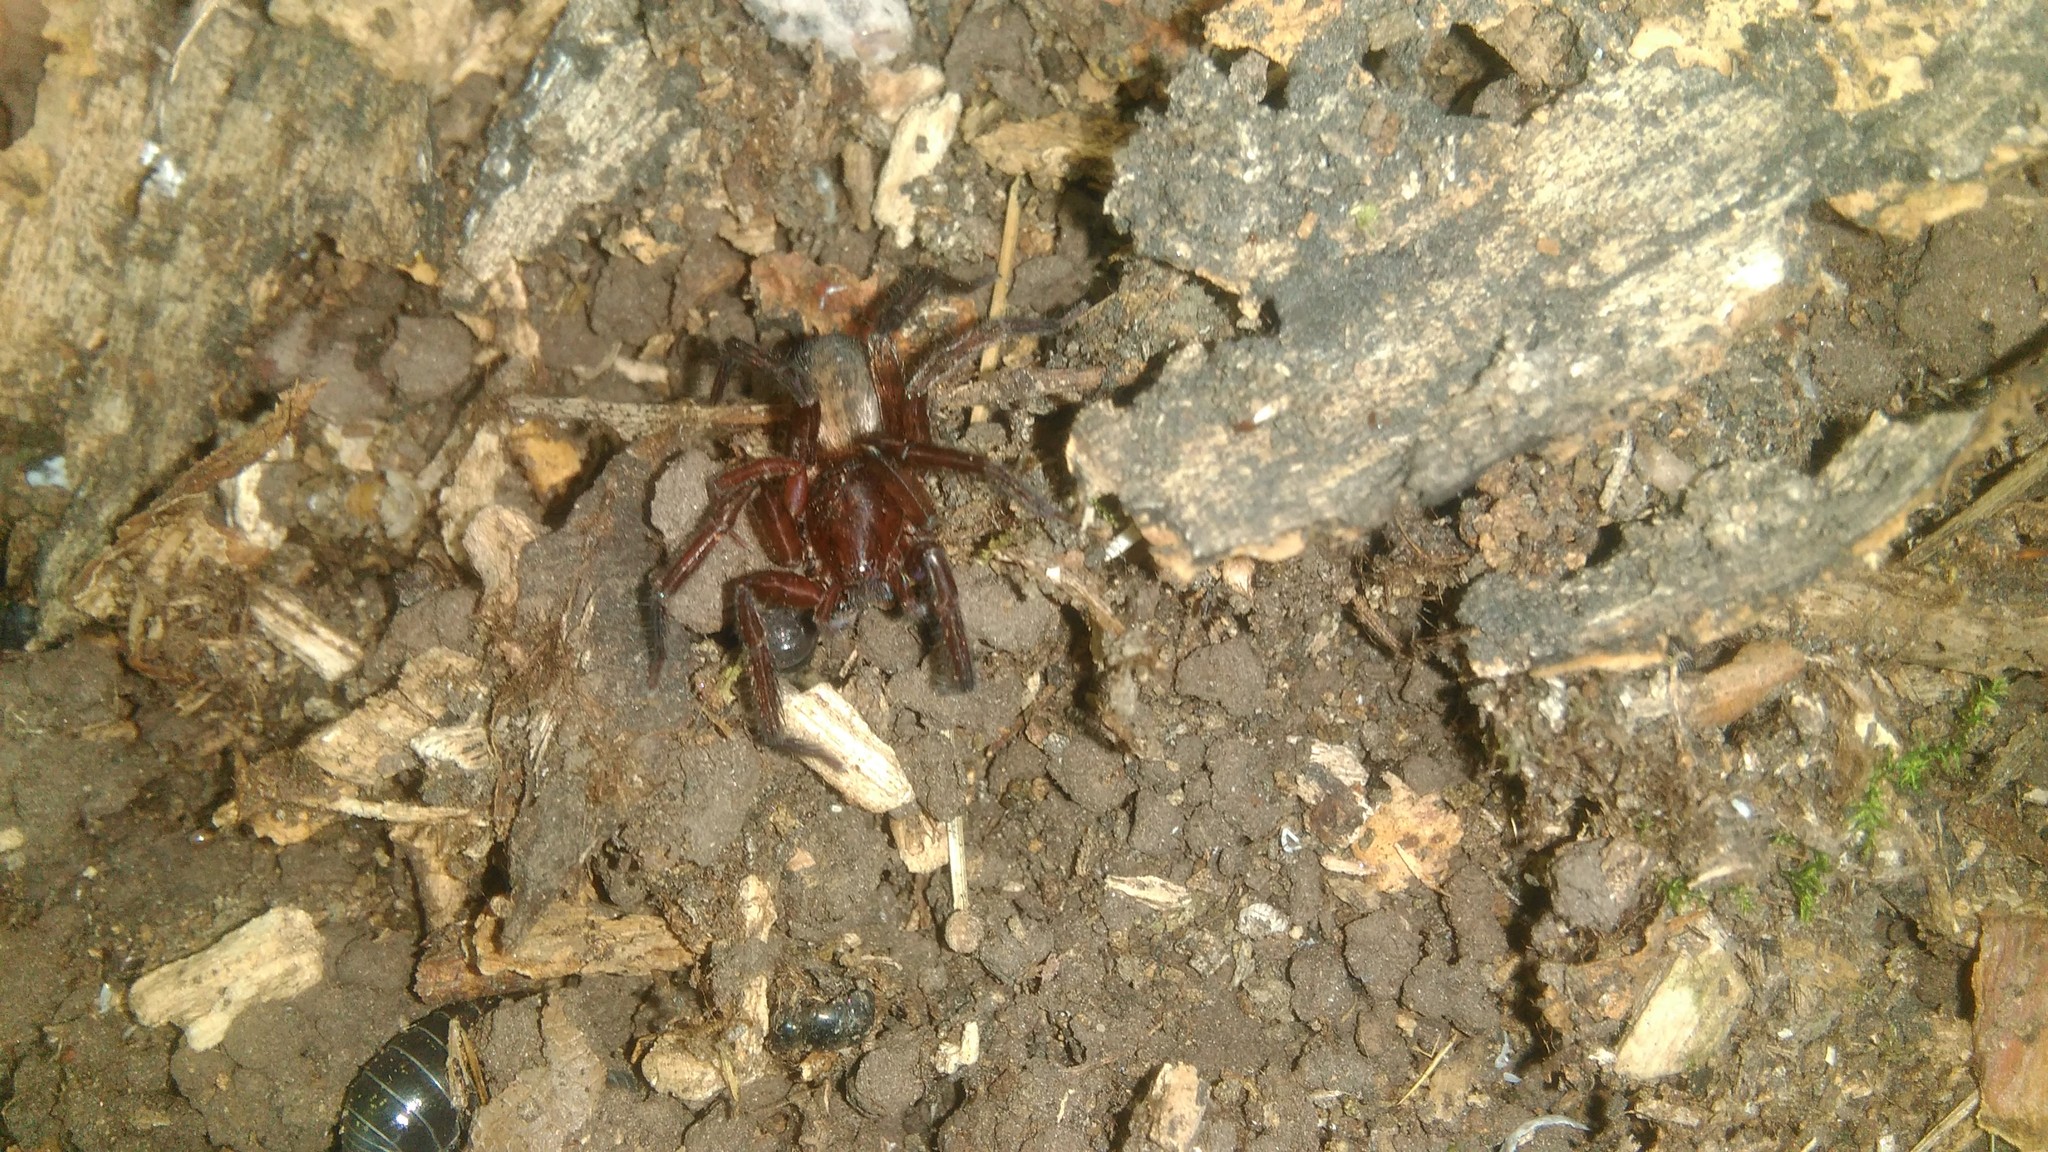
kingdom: Animalia
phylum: Arthropoda
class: Arachnida
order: Araneae
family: Ctenidae
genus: Asthenoctenus
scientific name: Asthenoctenus borellii
